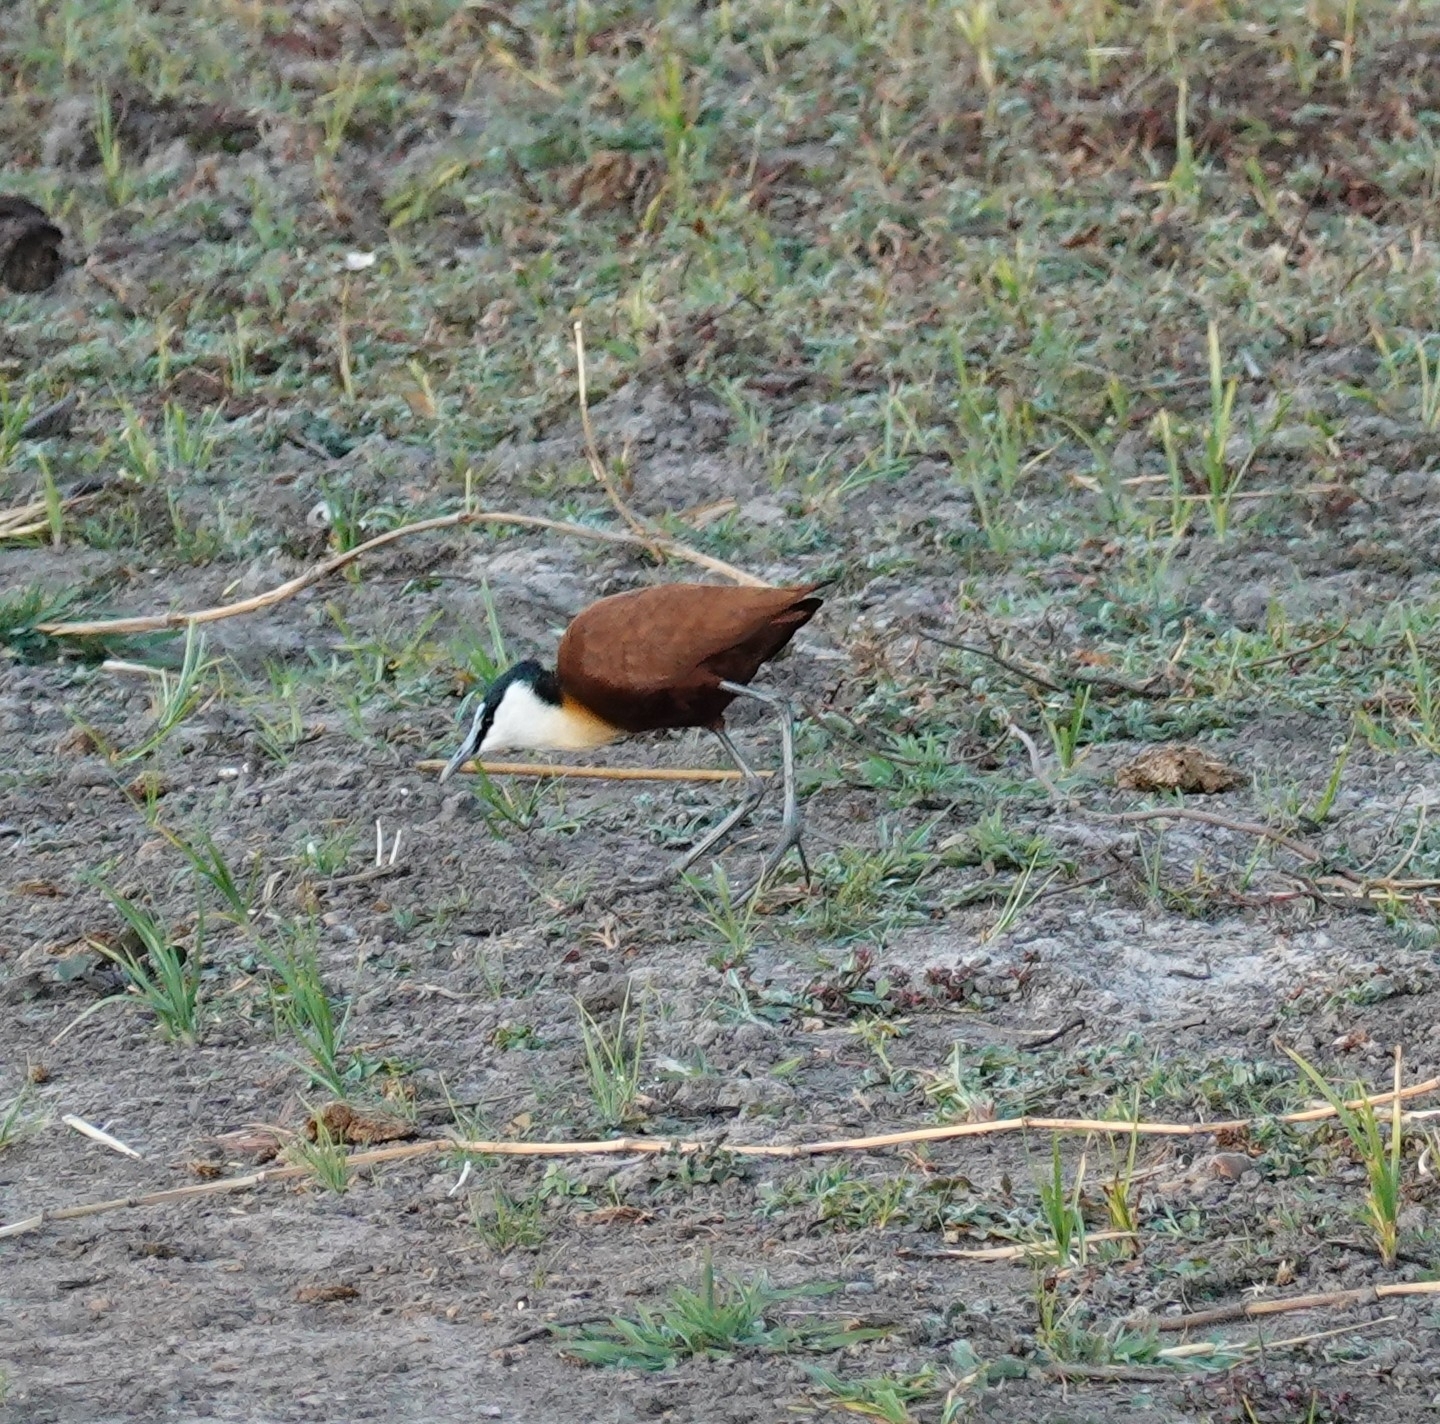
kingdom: Animalia
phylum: Chordata
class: Aves
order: Charadriiformes
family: Jacanidae
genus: Actophilornis
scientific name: Actophilornis africanus
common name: African jacana
